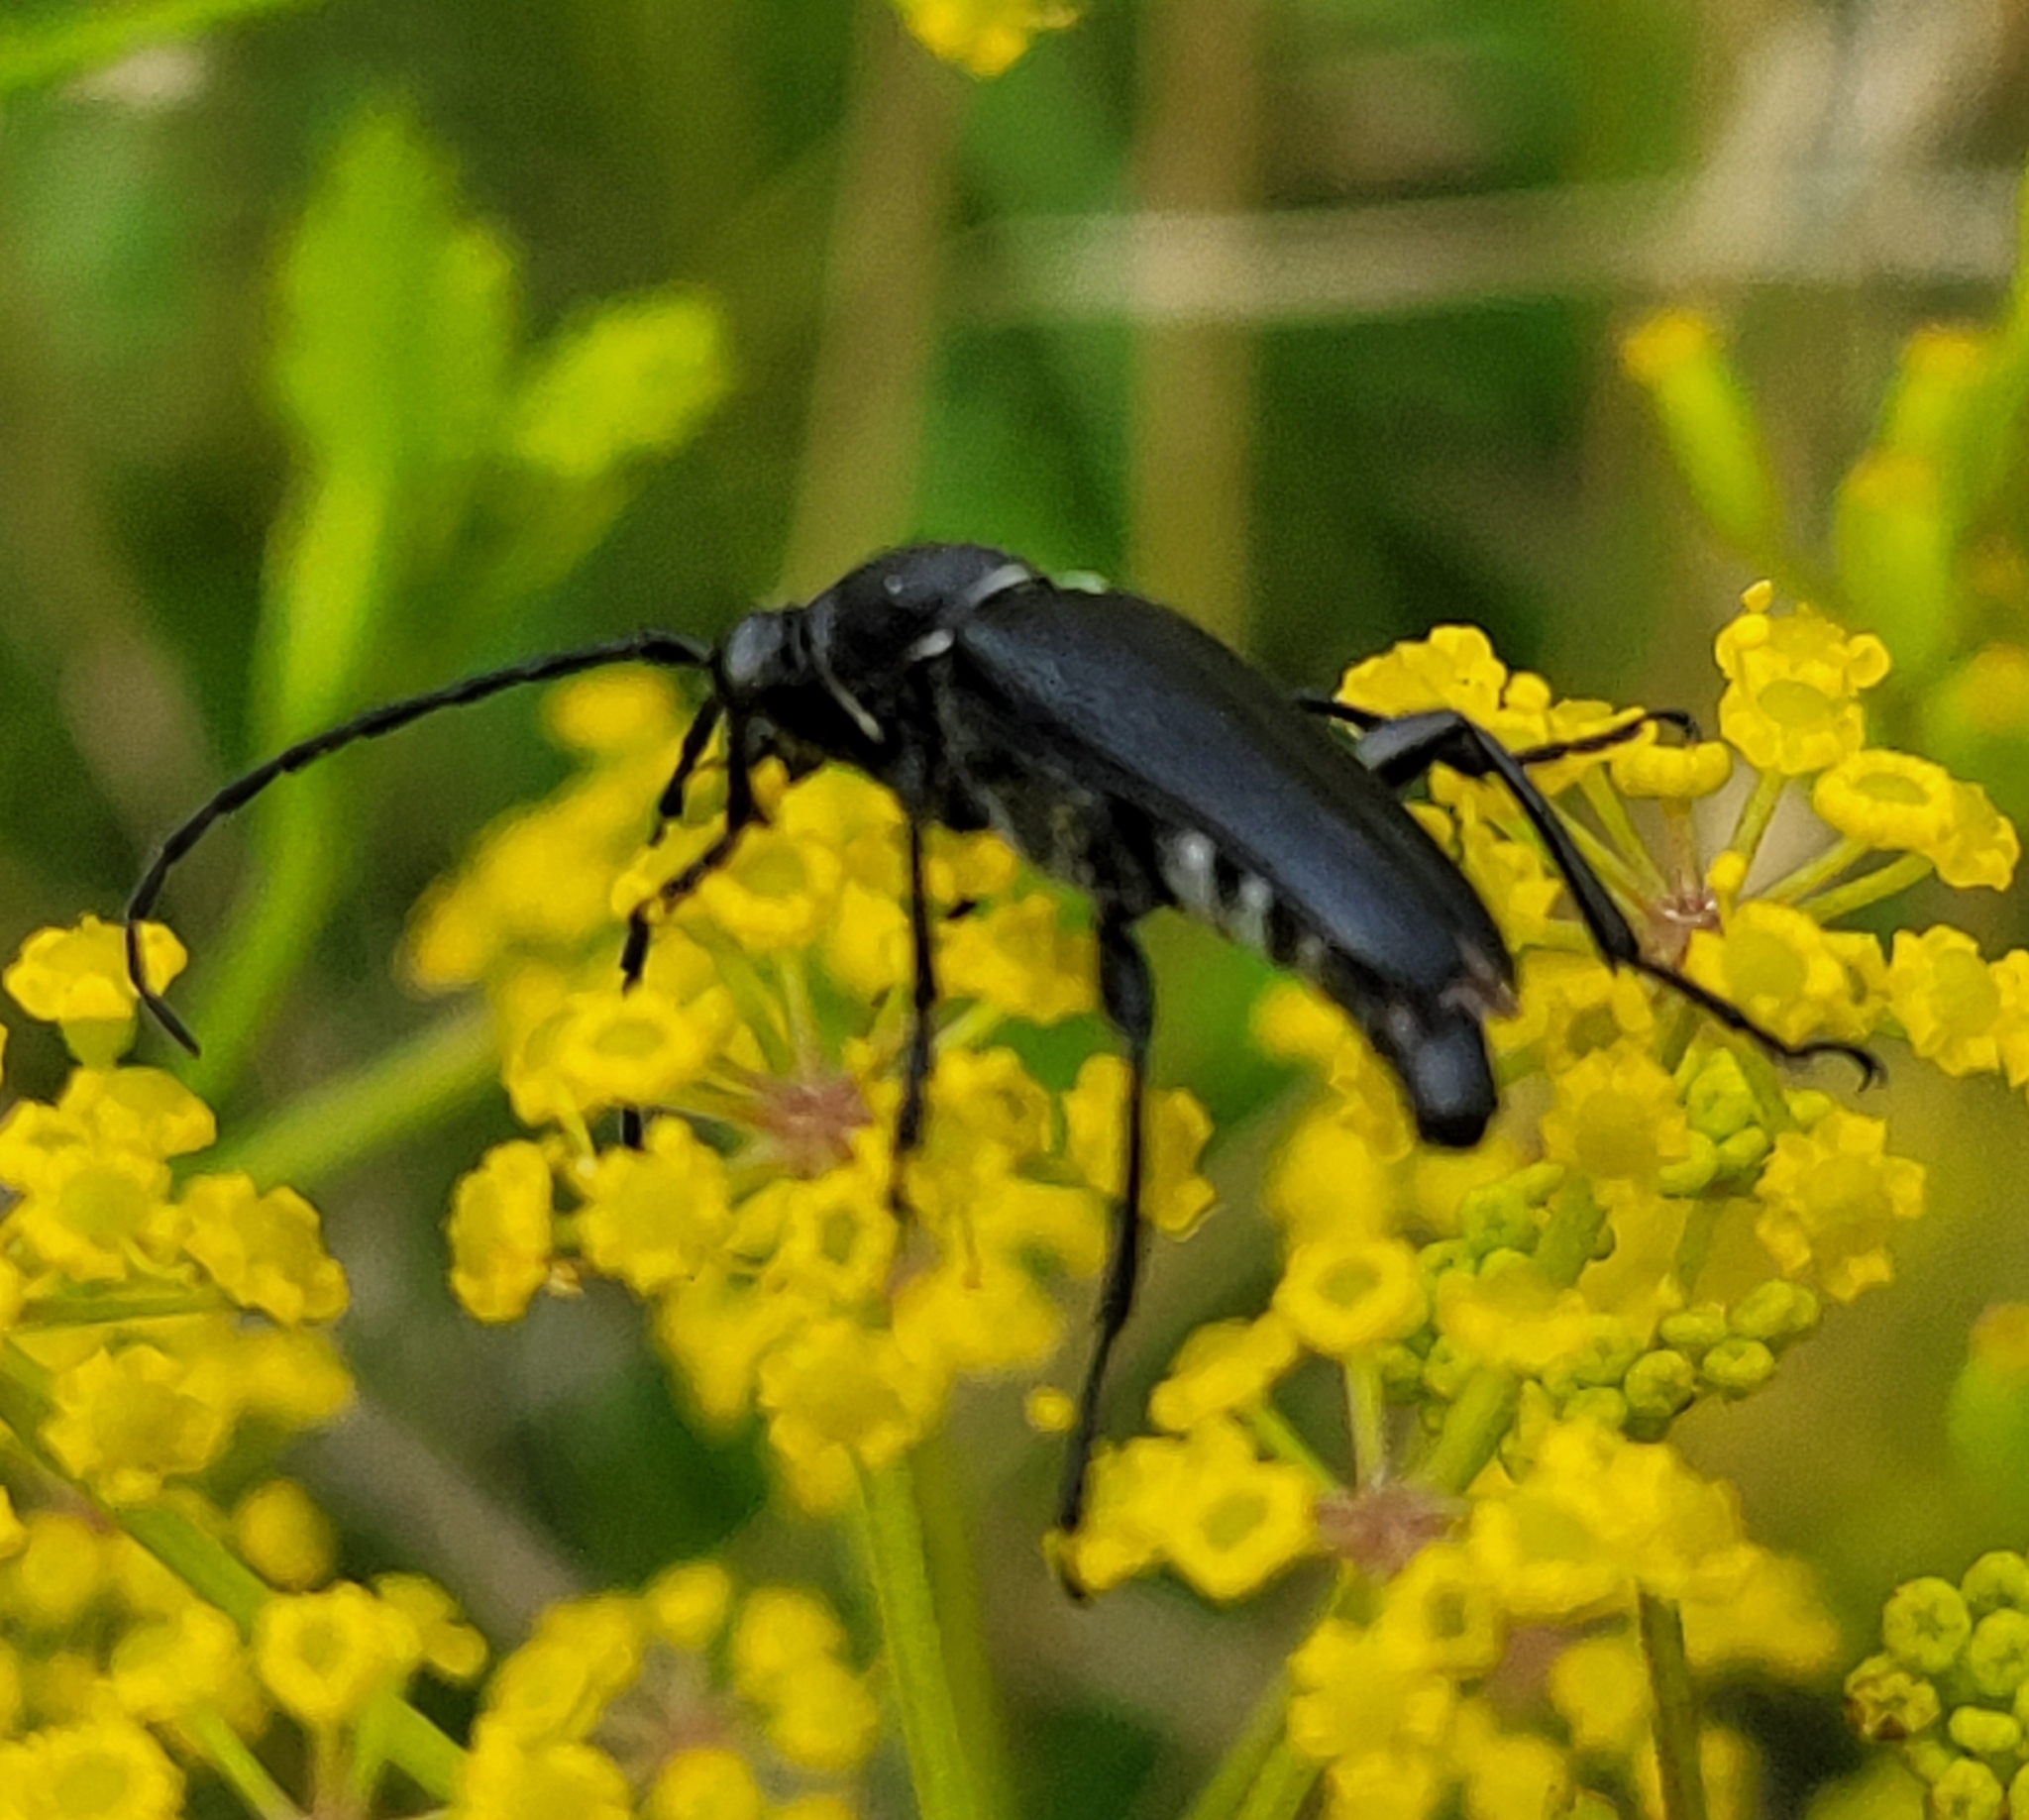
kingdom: Animalia
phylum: Arthropoda
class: Insecta
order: Coleoptera
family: Cerambycidae
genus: Stictoleptura
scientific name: Stictoleptura scutellata
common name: Large black longhorn beetle
